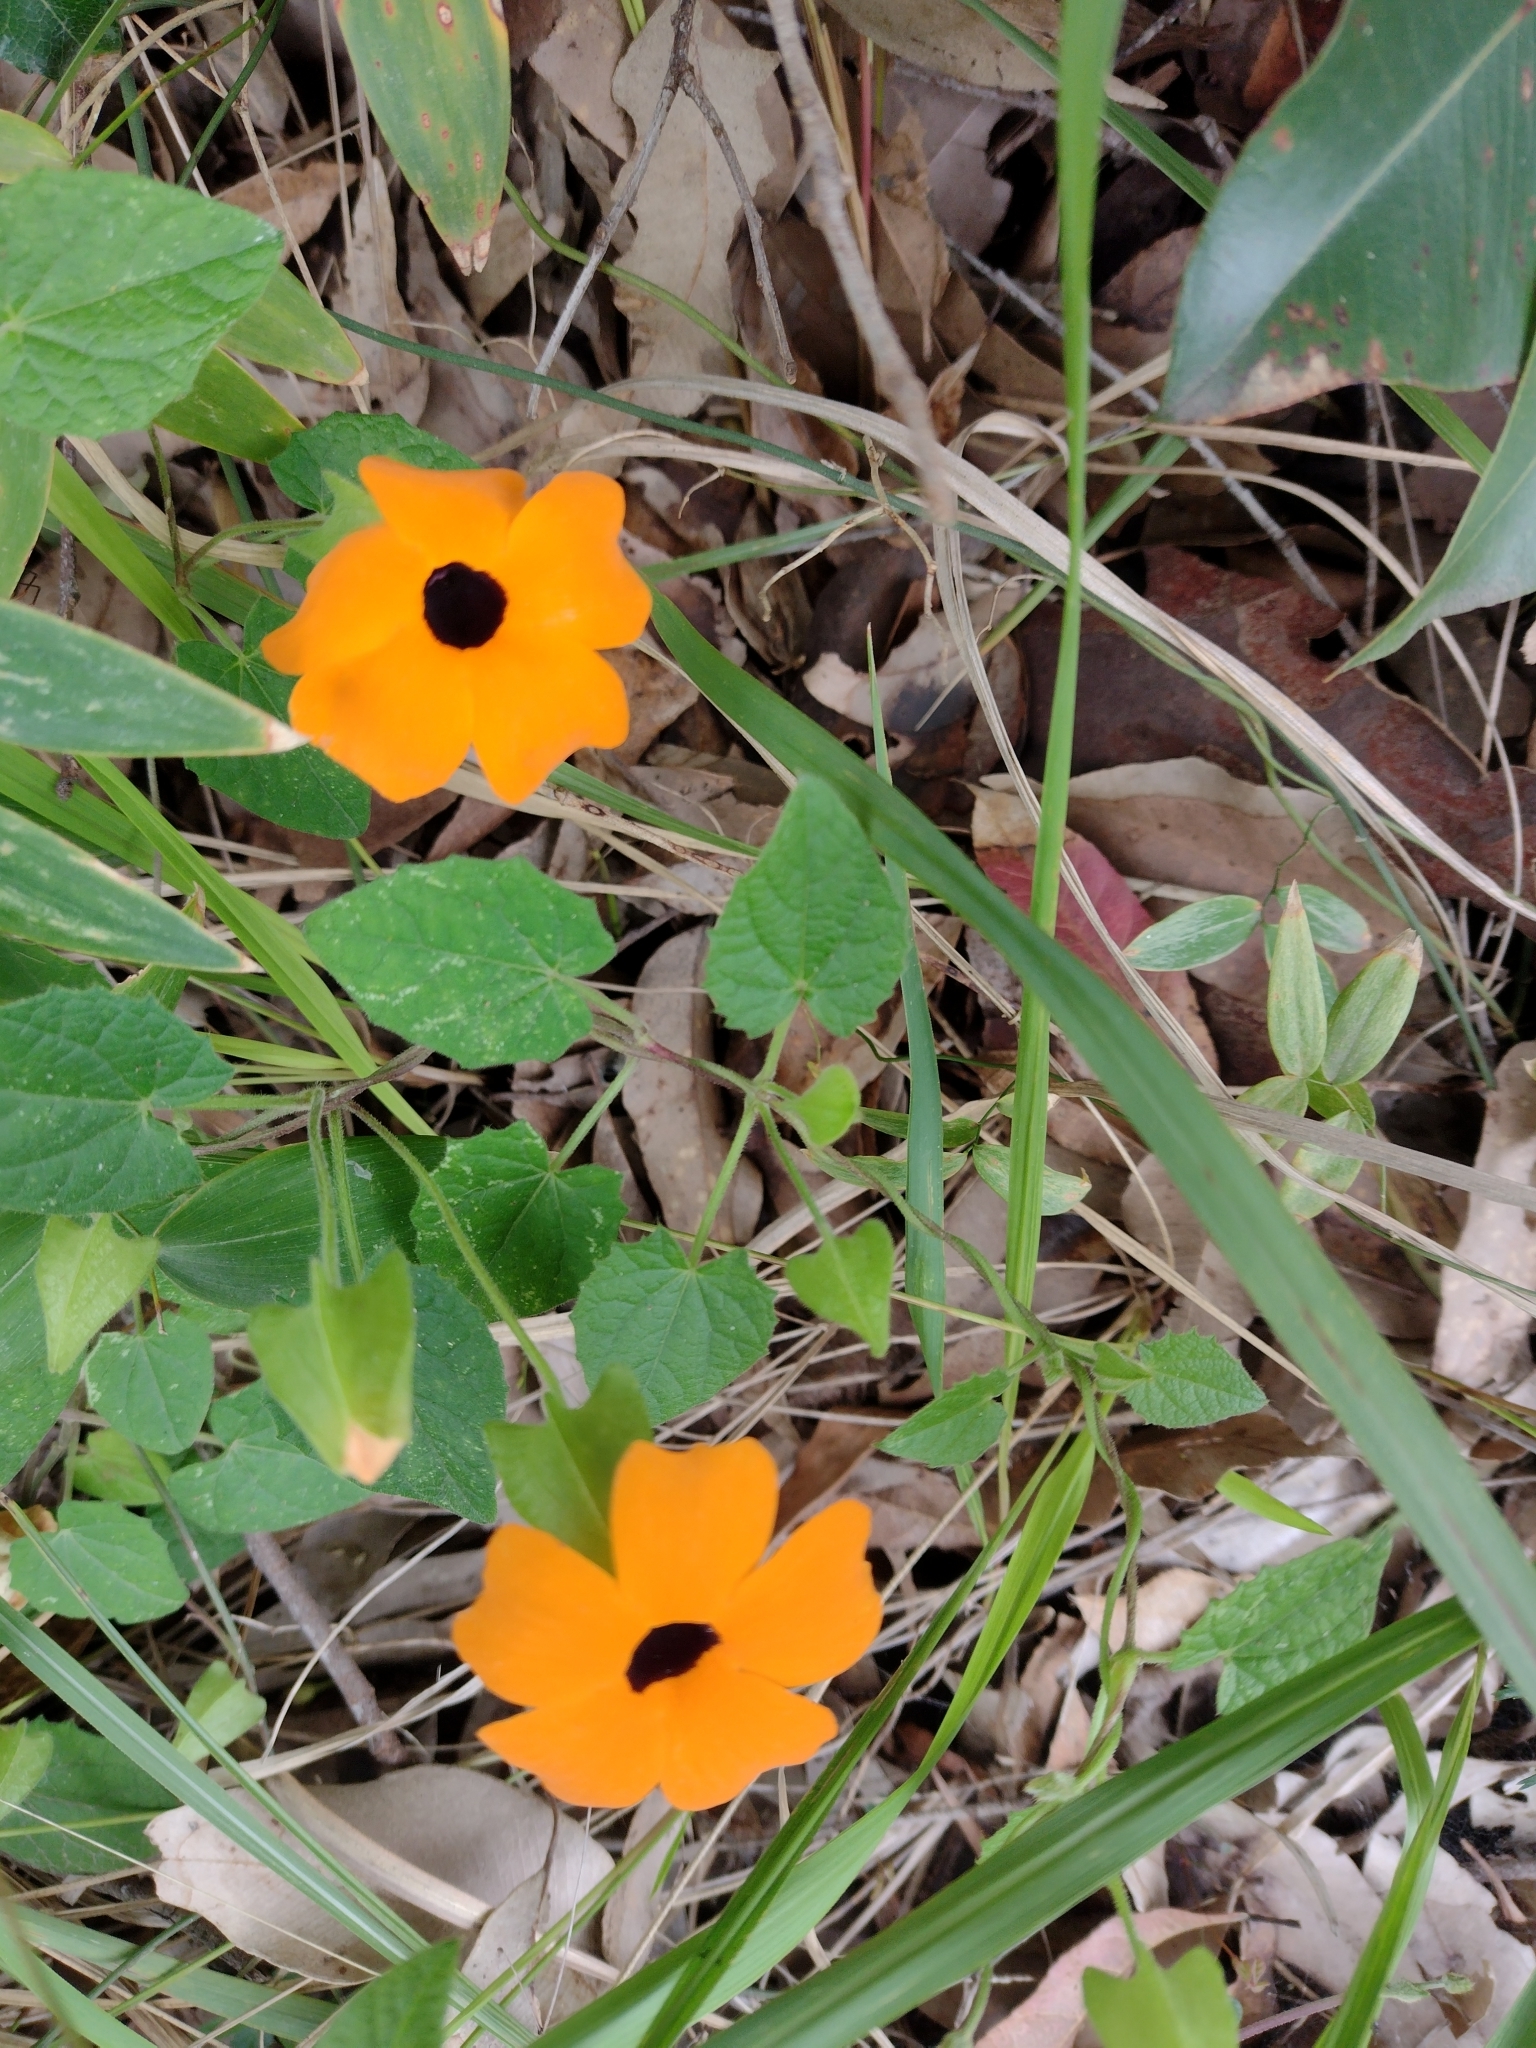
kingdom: Plantae
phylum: Tracheophyta
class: Magnoliopsida
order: Lamiales
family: Acanthaceae
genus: Thunbergia
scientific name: Thunbergia alata
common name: Blackeyed susan vine
